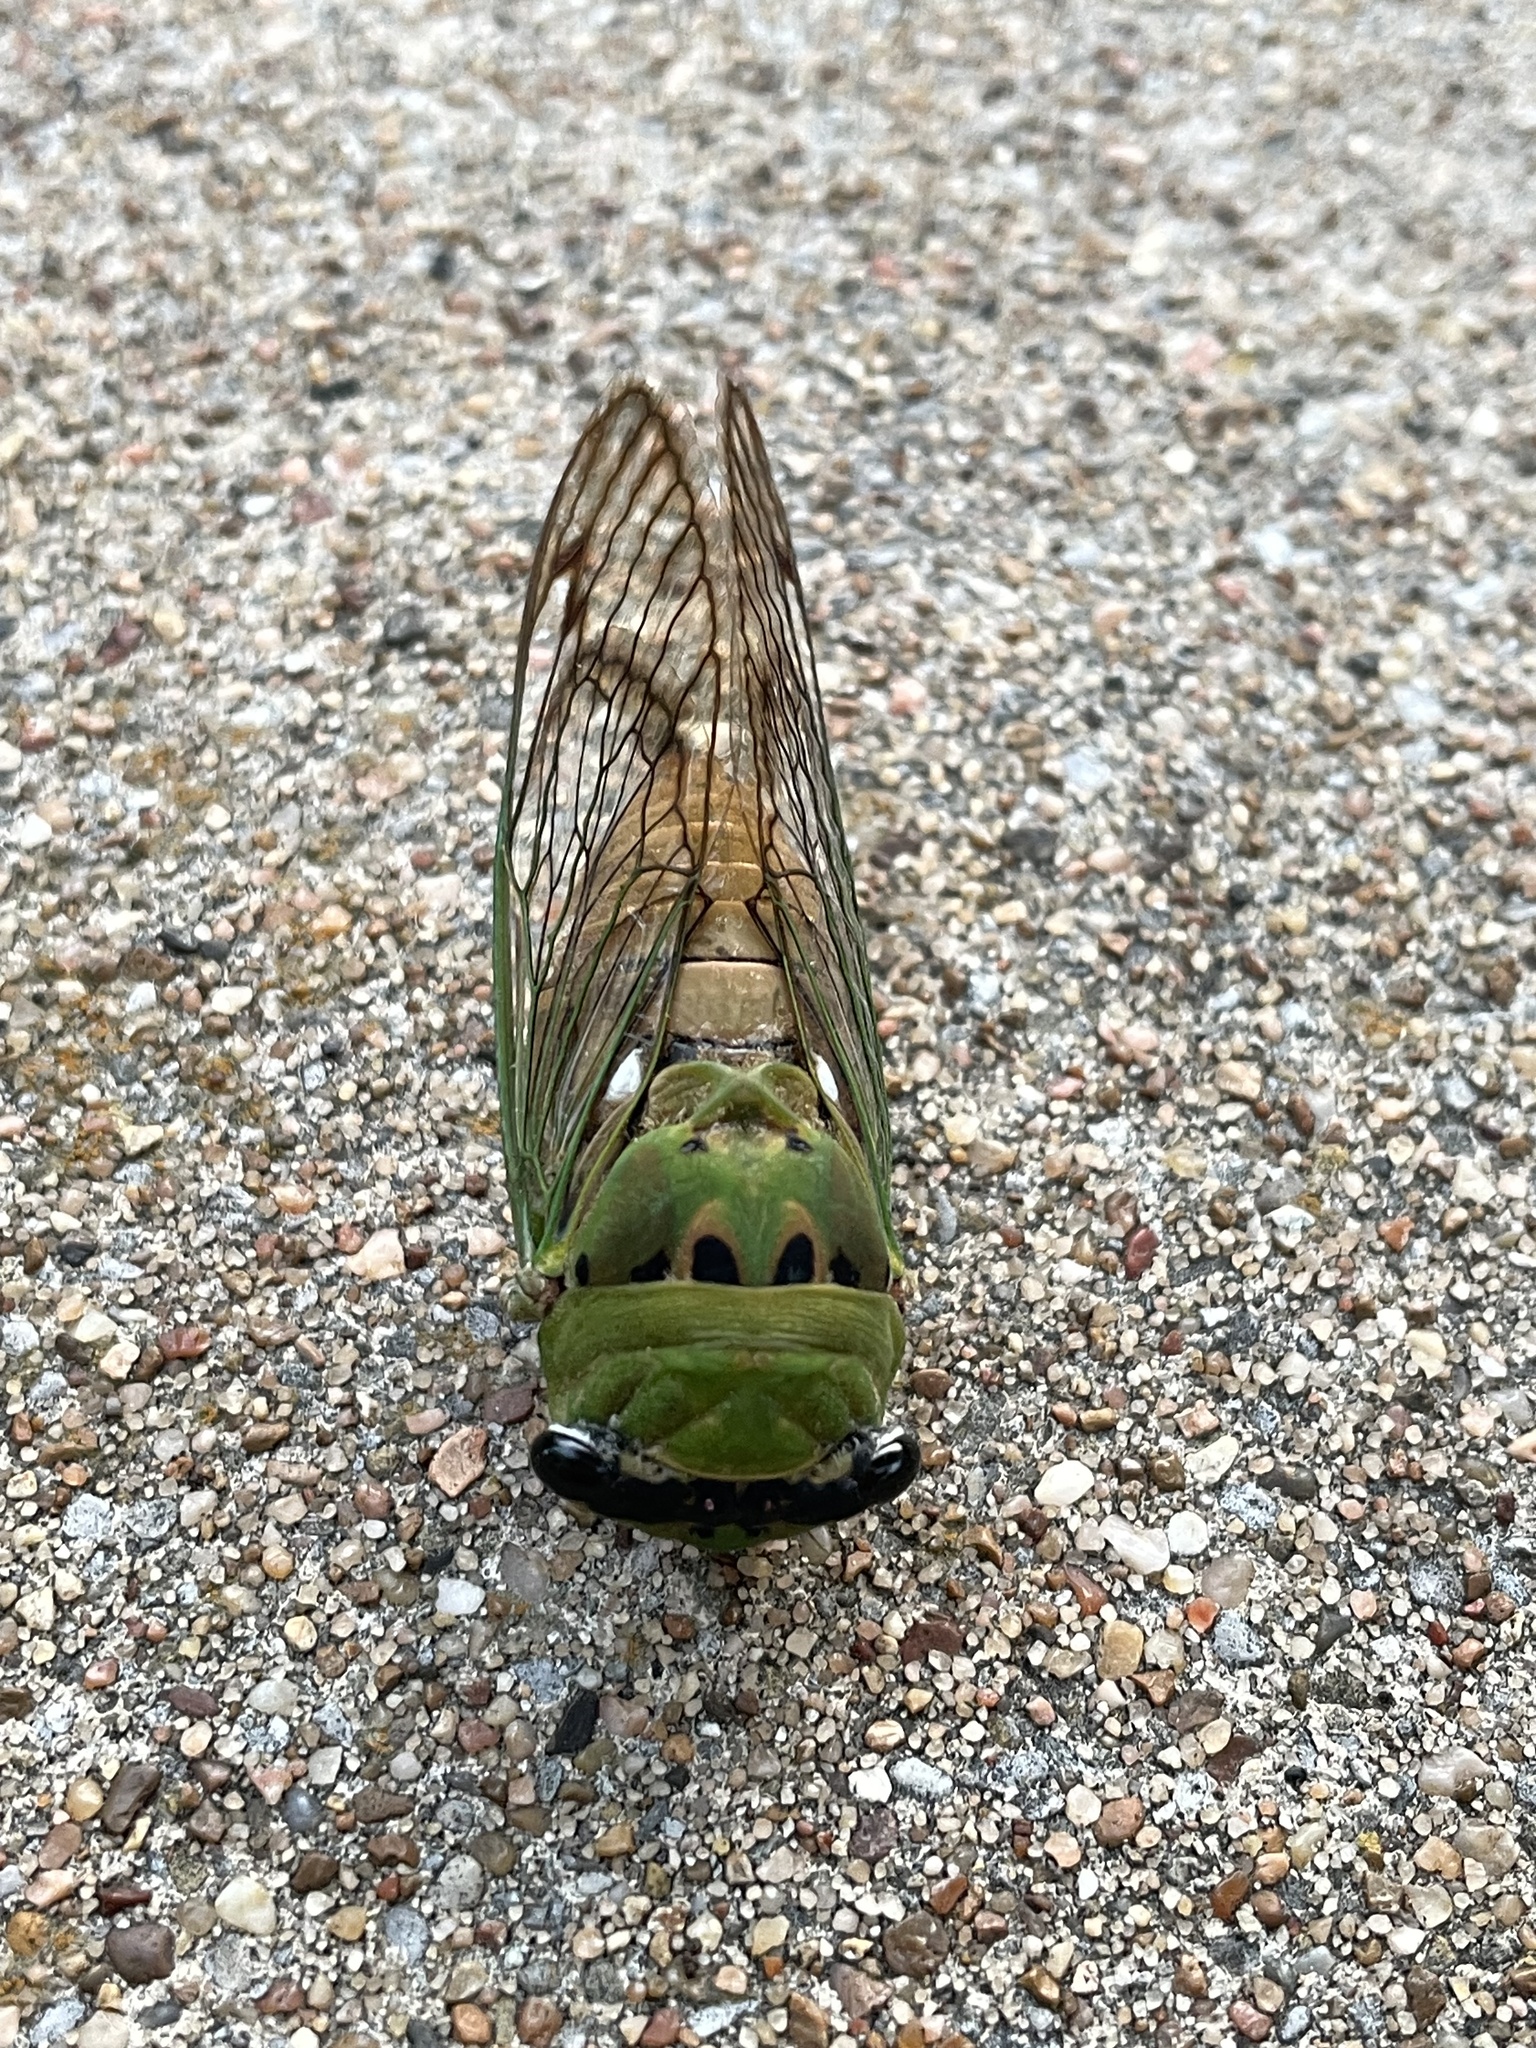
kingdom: Animalia
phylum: Arthropoda
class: Insecta
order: Hemiptera
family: Cicadidae
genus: Neotibicen
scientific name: Neotibicen superbus
